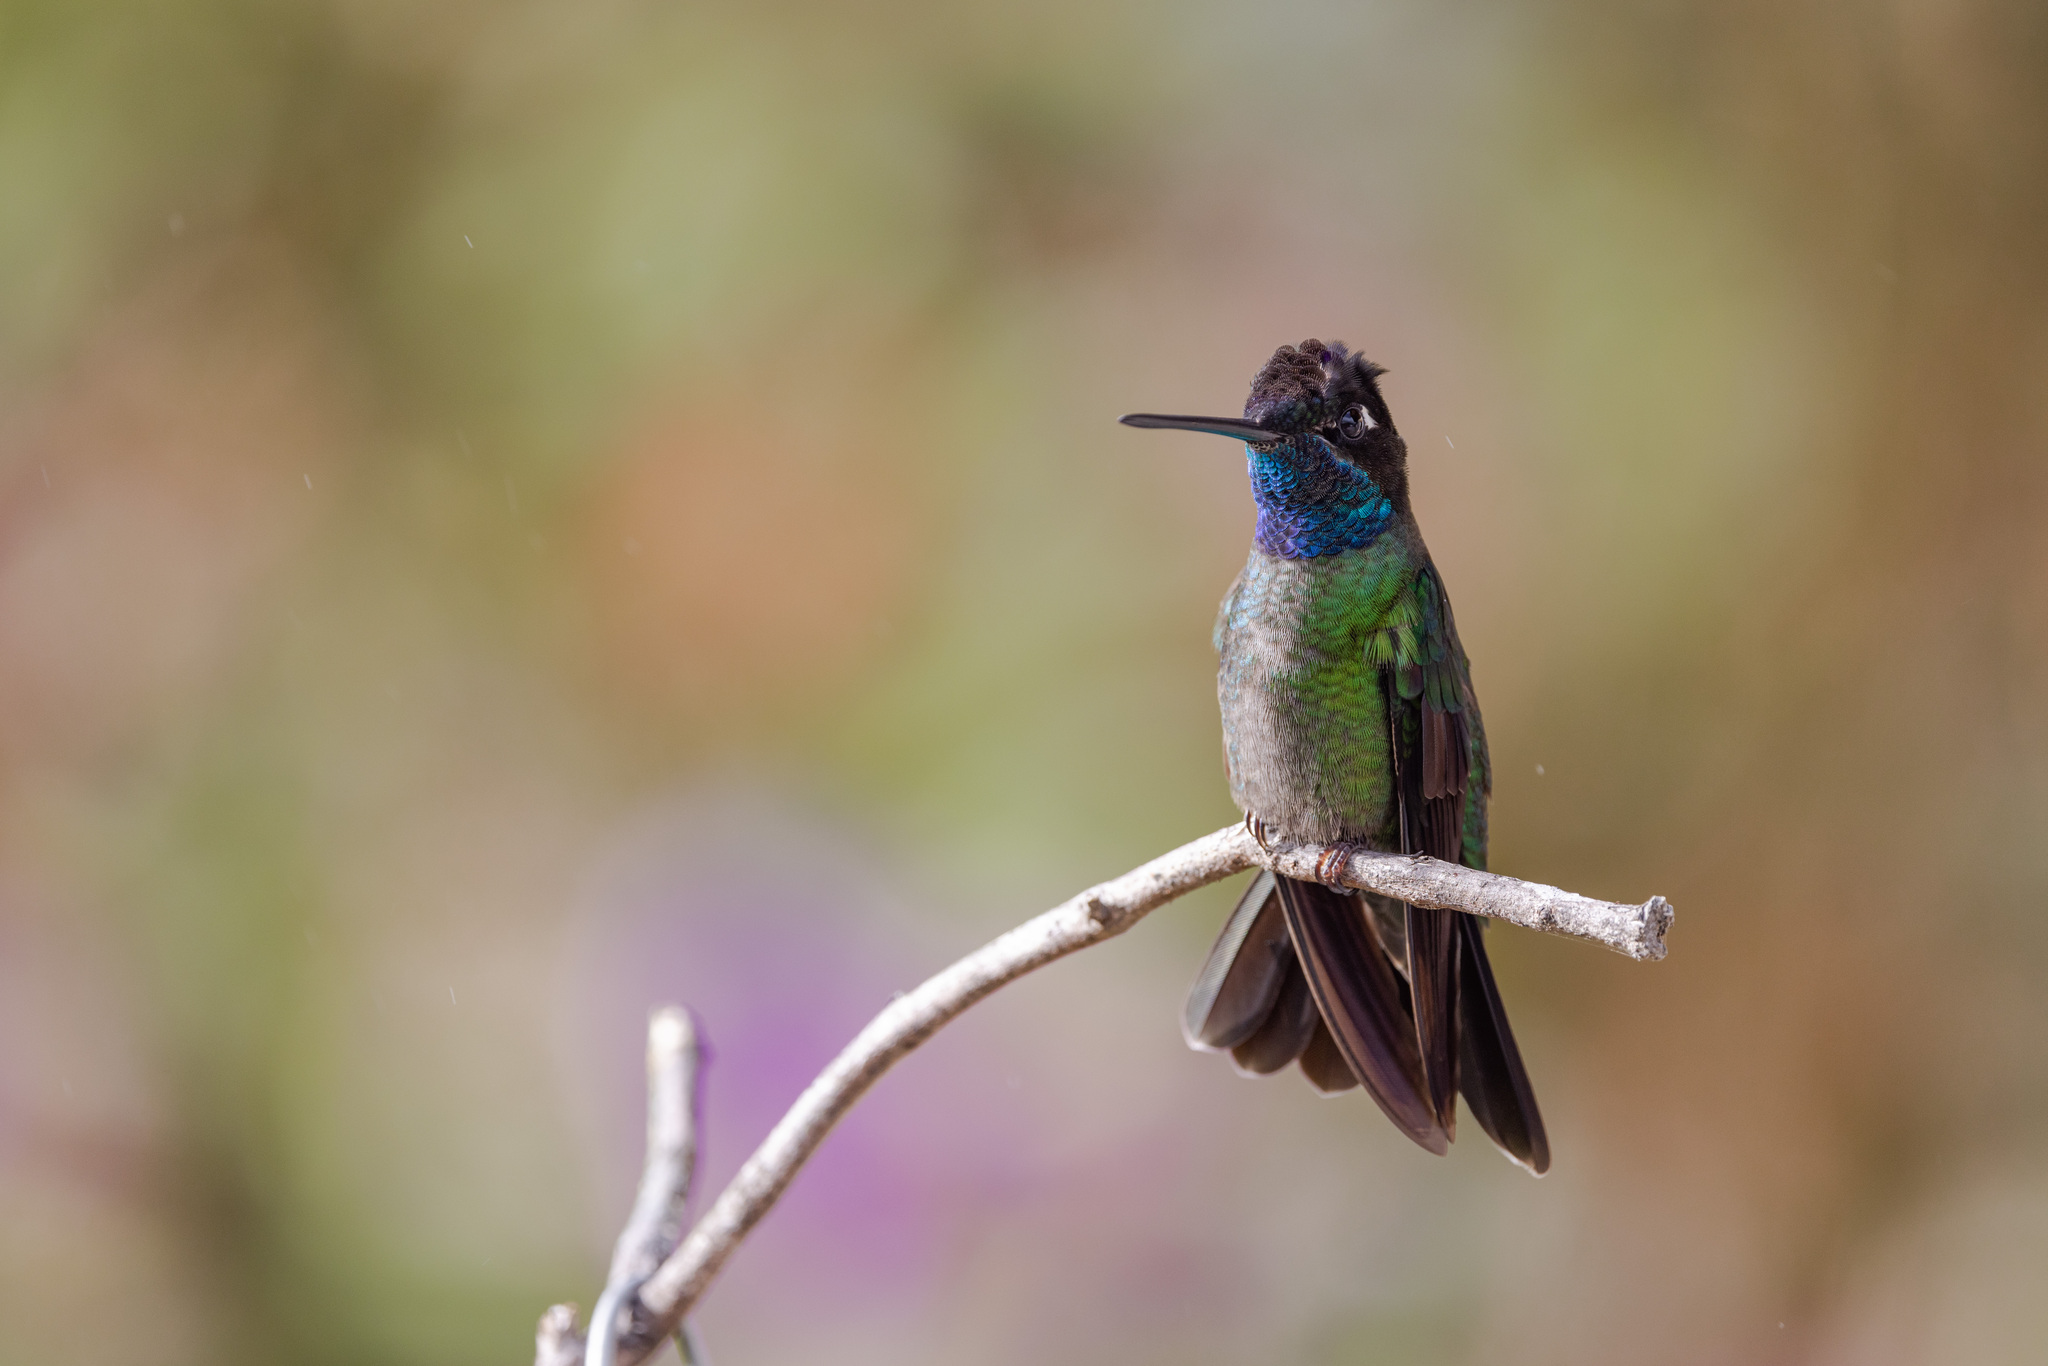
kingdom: Animalia
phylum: Chordata
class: Aves
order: Apodiformes
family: Trochilidae
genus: Eugenes
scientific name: Eugenes spectabilis
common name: Talamanca hummingbird
